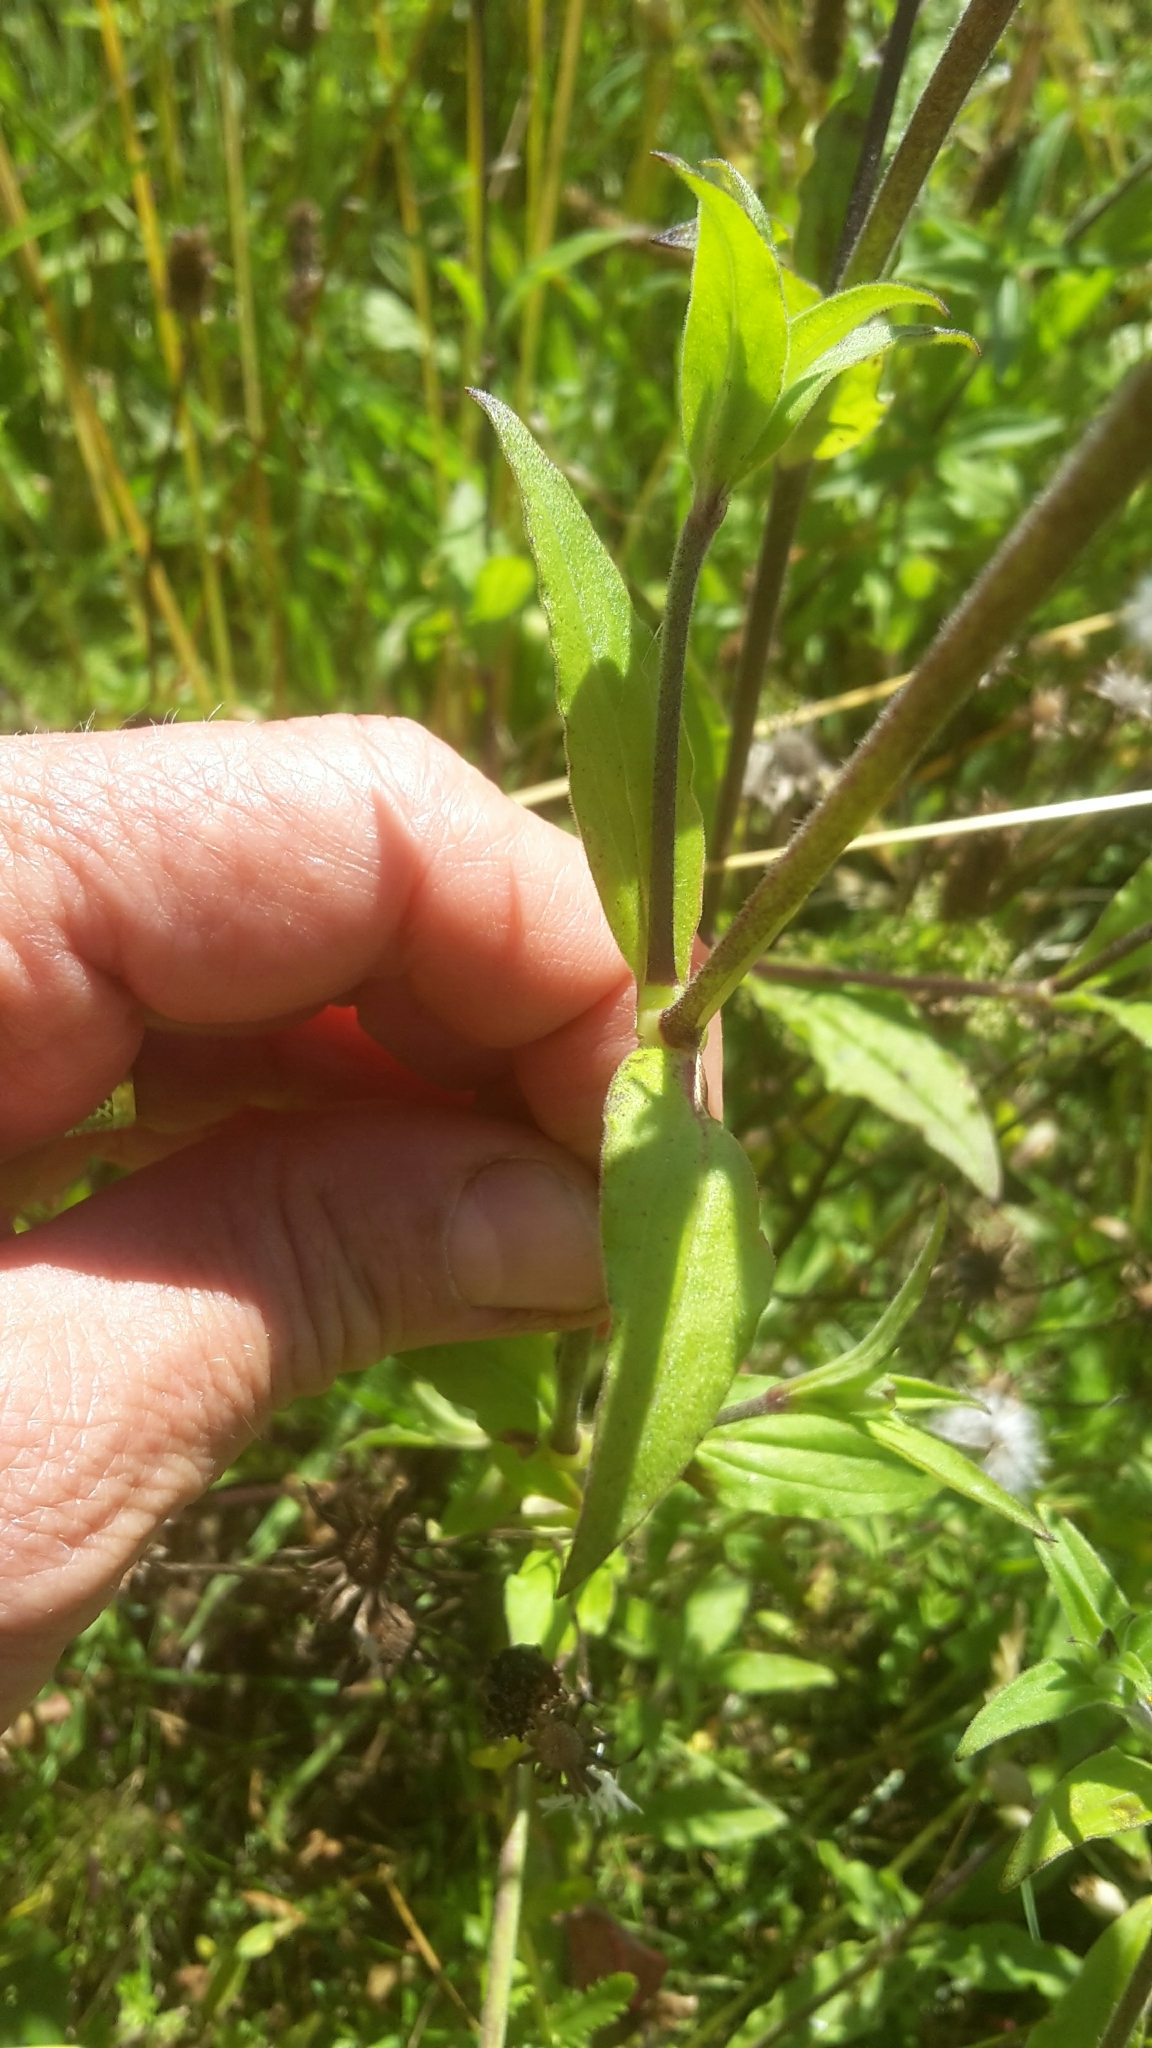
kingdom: Plantae
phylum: Tracheophyta
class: Magnoliopsida
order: Caryophyllales
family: Caryophyllaceae
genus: Silene
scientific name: Silene latifolia
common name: White campion
